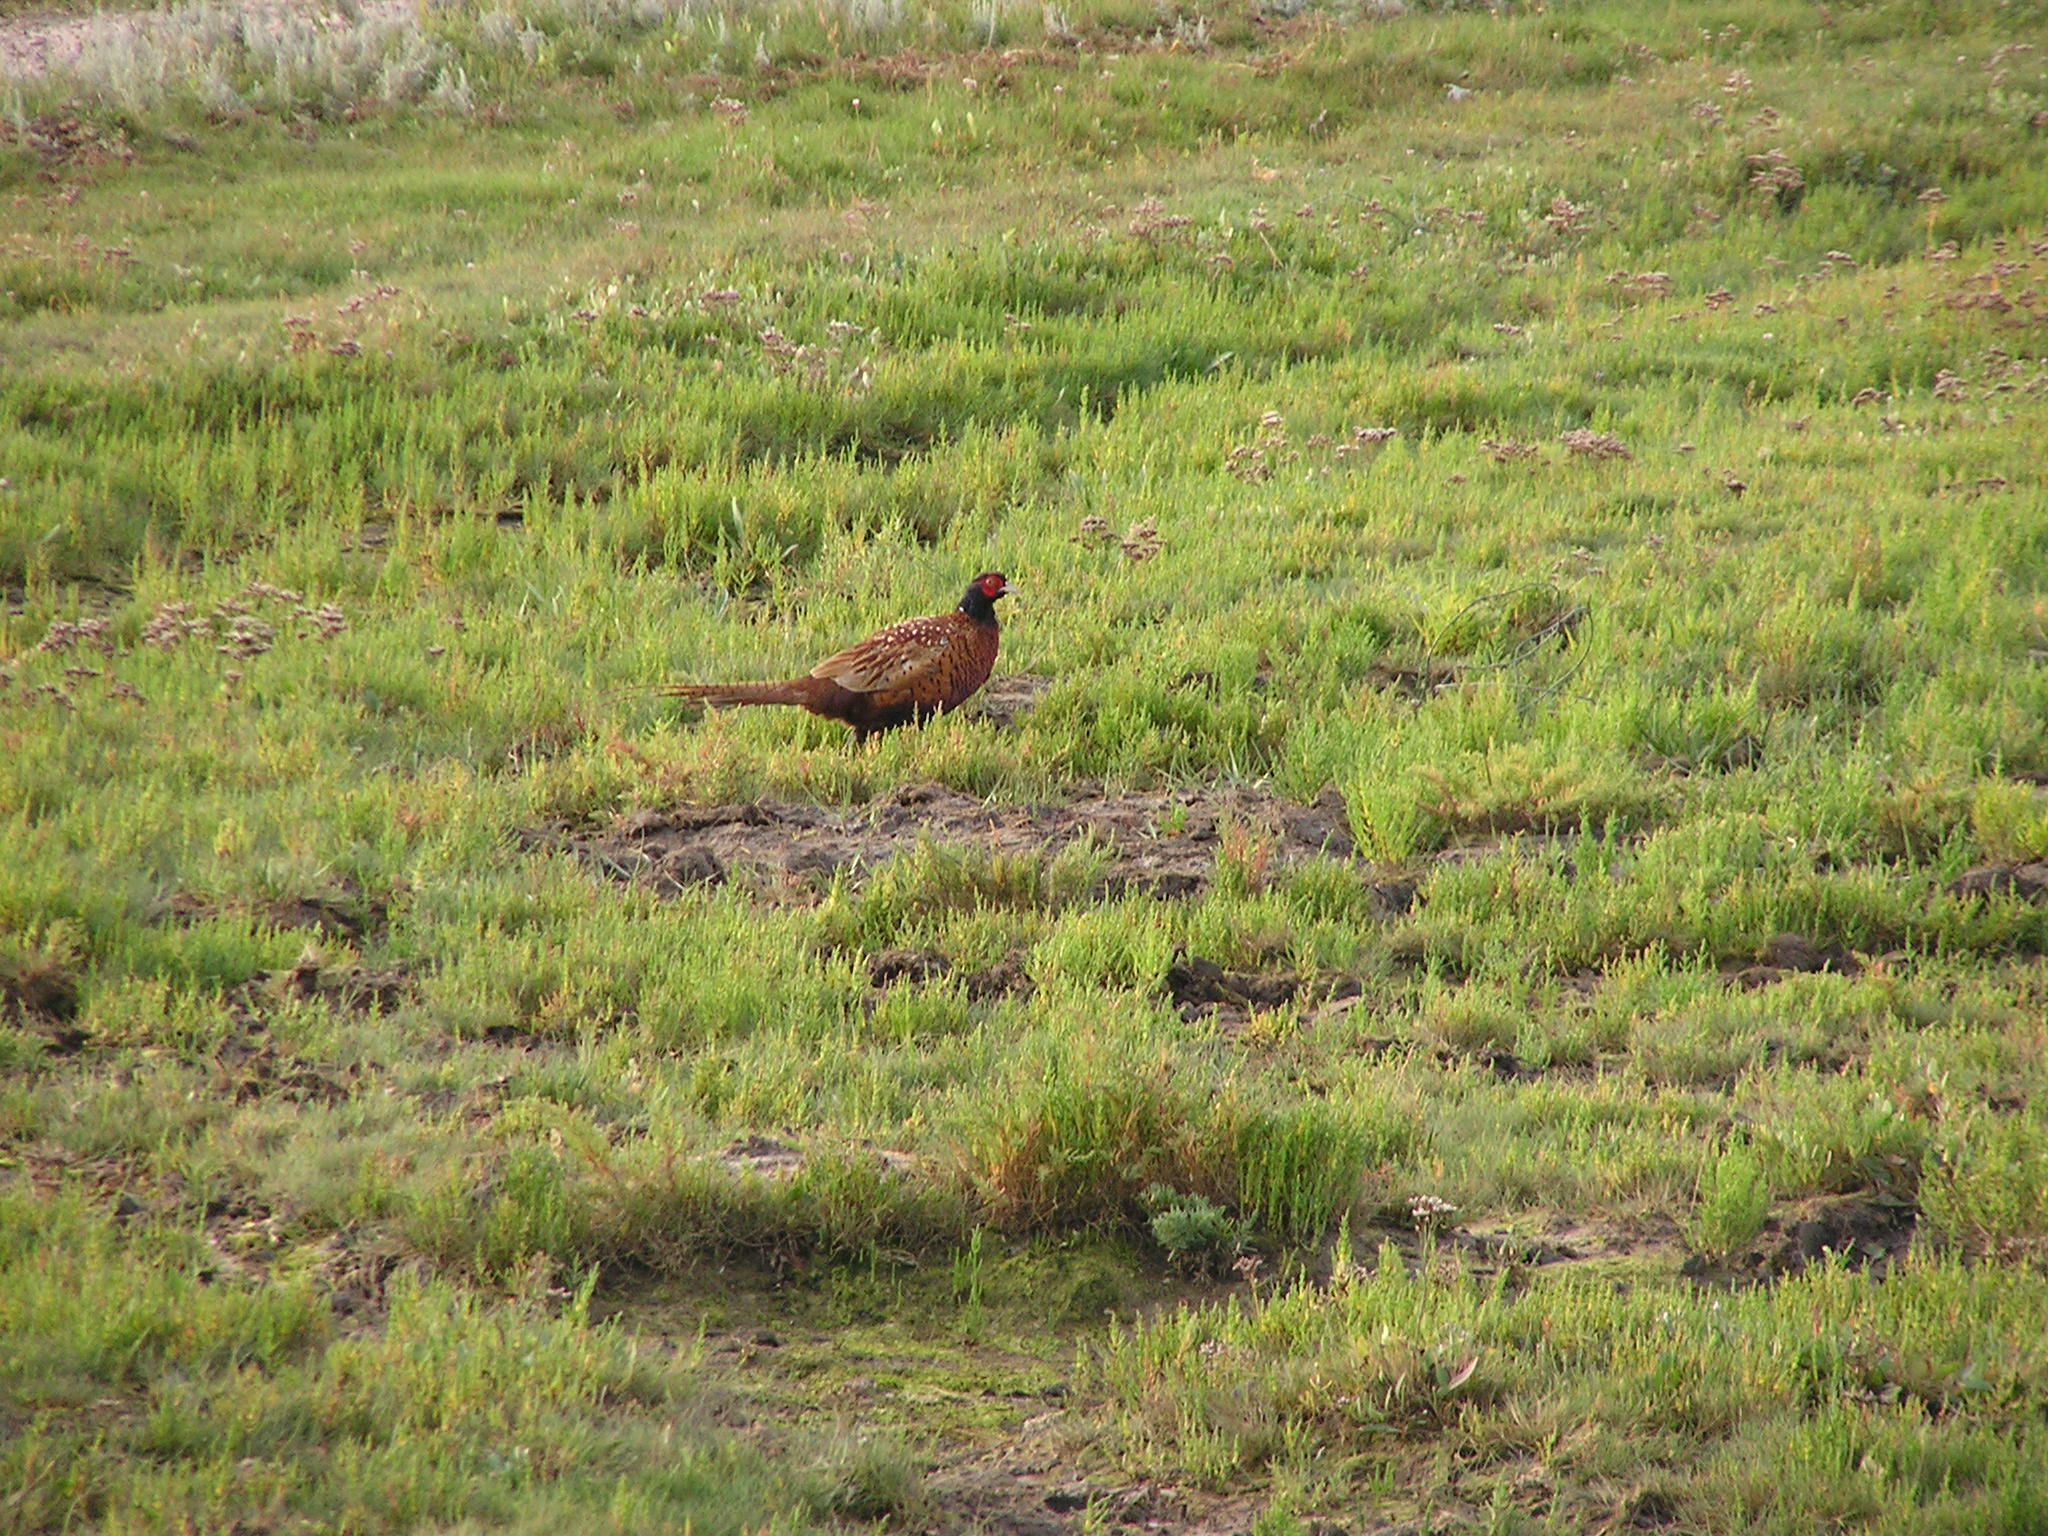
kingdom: Animalia
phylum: Chordata
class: Aves
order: Galliformes
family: Phasianidae
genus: Phasianus
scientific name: Phasianus colchicus
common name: Common pheasant
